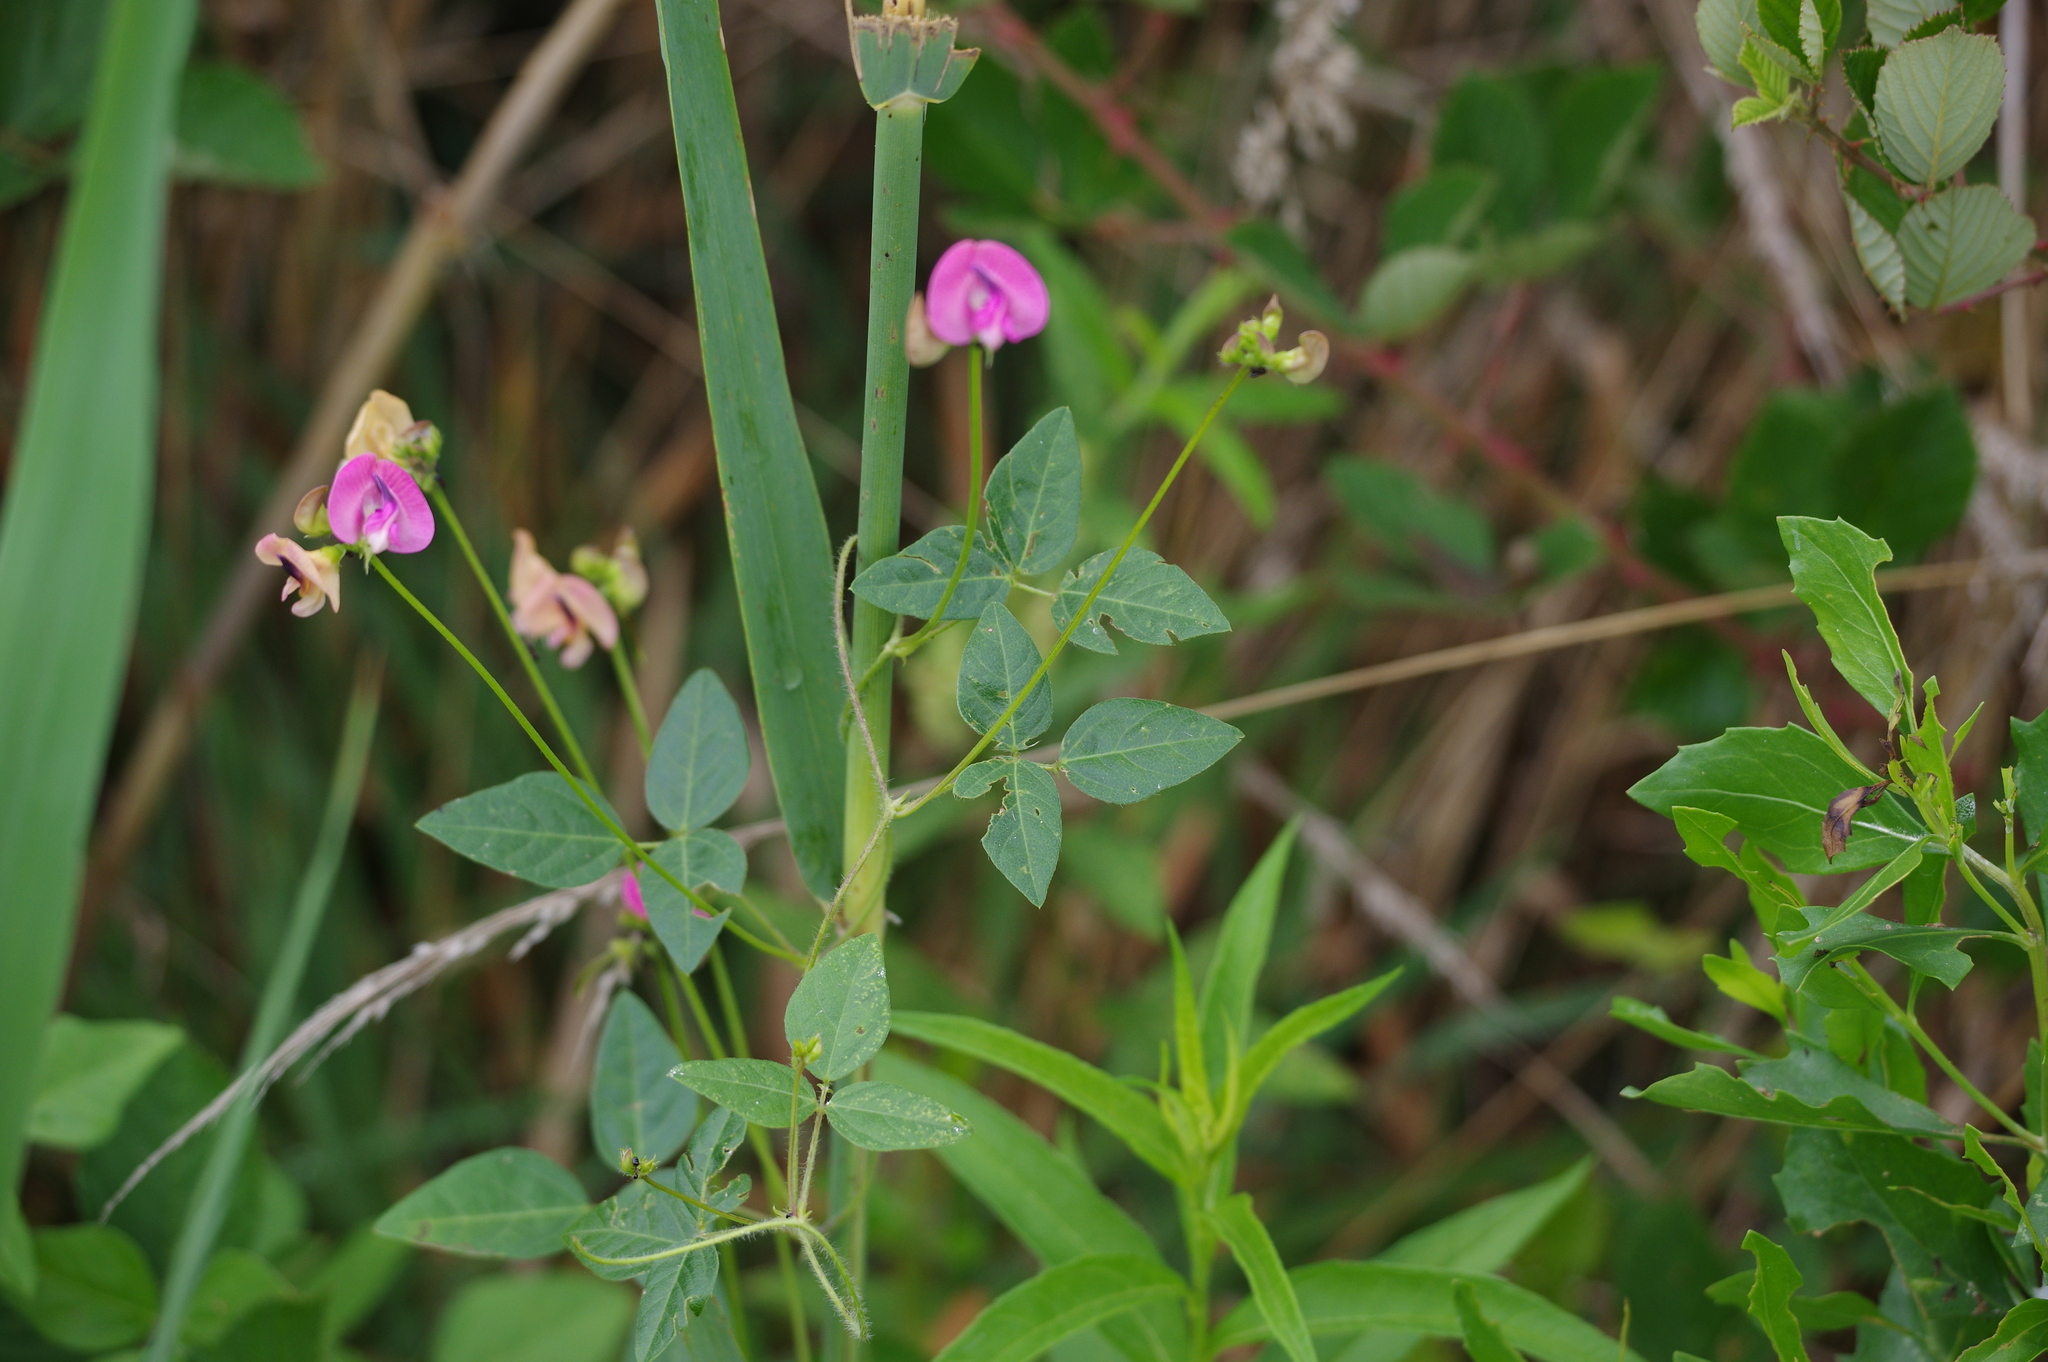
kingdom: Plantae
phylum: Tracheophyta
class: Magnoliopsida
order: Fabales
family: Fabaceae
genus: Strophostyles
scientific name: Strophostyles umbellata
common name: Perennial wild bean
